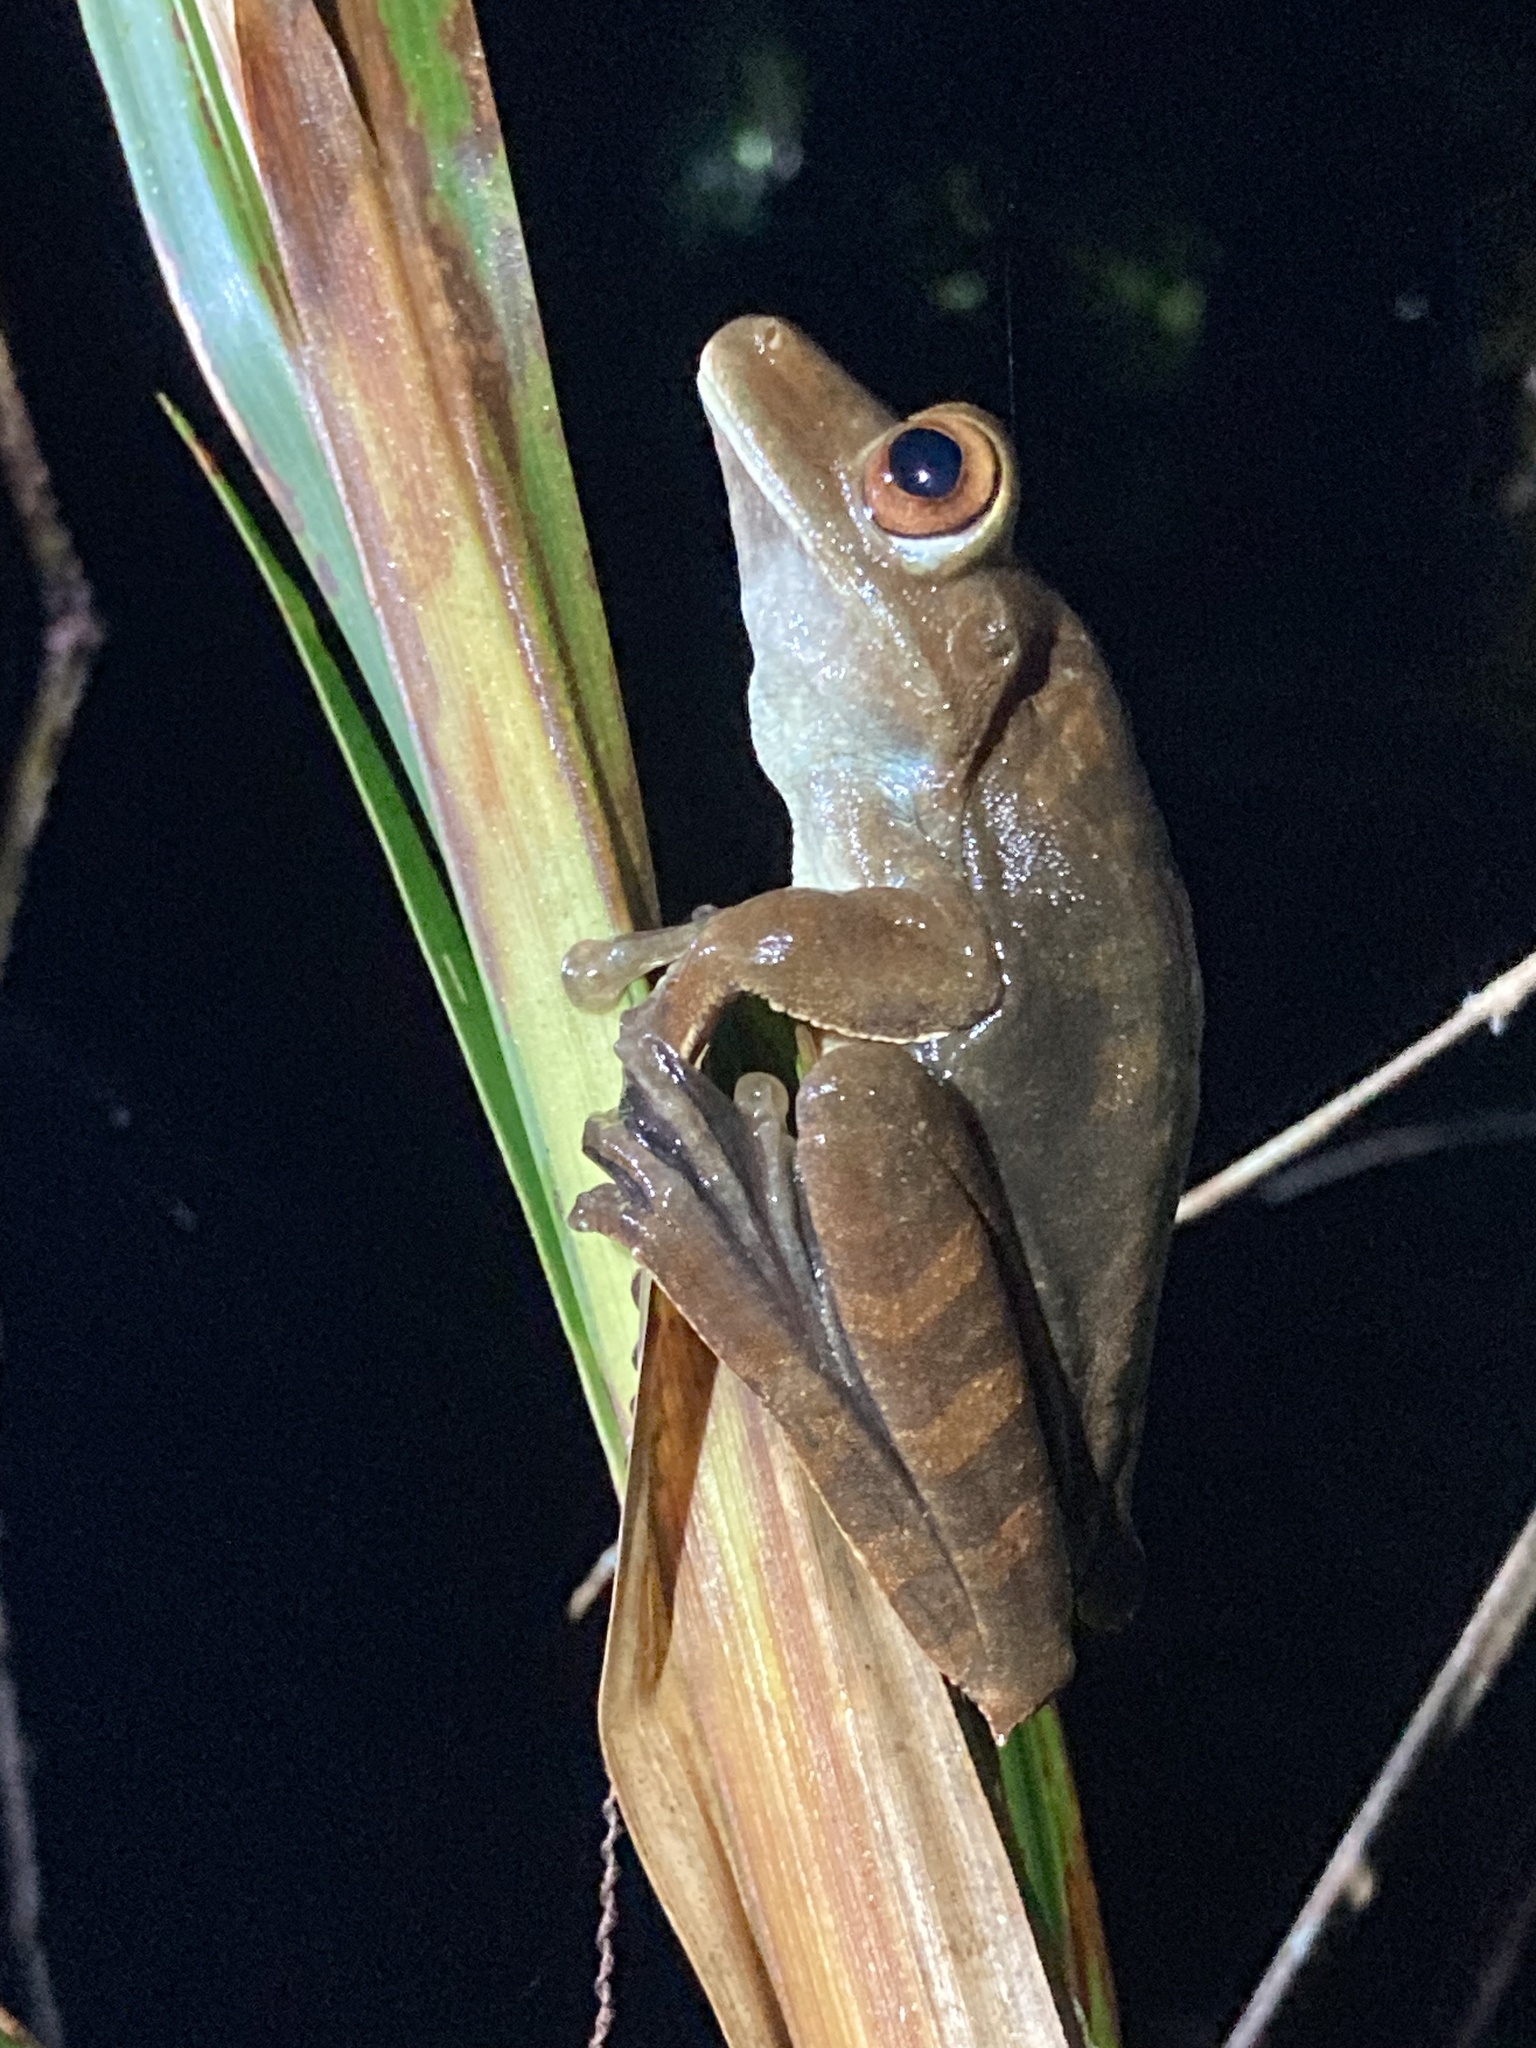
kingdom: Animalia
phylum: Chordata
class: Amphibia
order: Anura
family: Hylidae
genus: Boana
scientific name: Boana boans
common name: Giant gladiator treefrog
